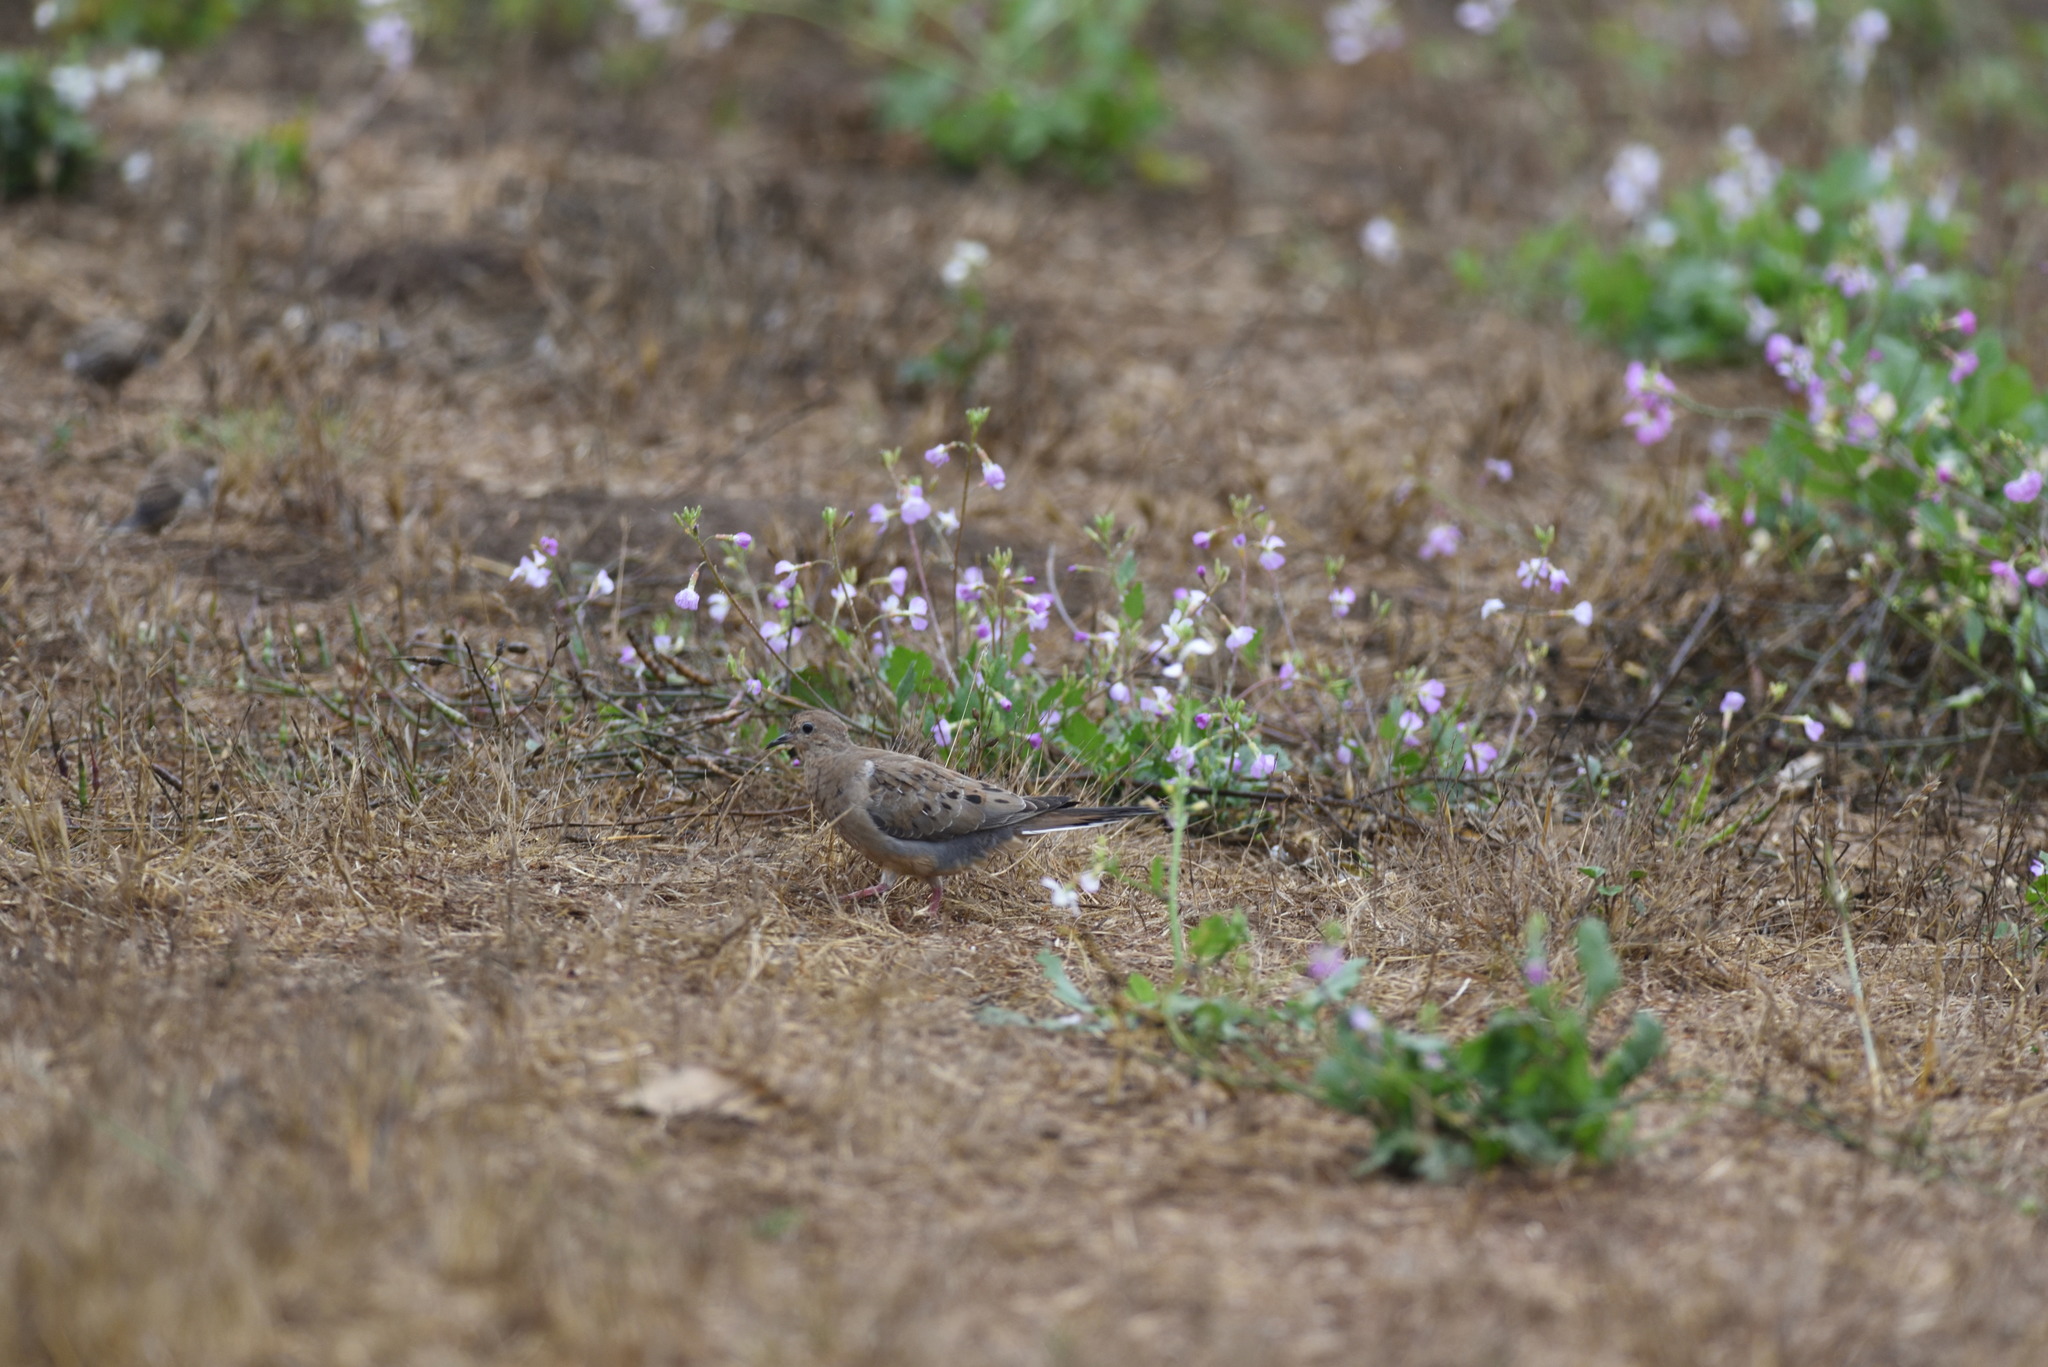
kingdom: Animalia
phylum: Chordata
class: Aves
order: Columbiformes
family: Columbidae
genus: Zenaida
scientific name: Zenaida macroura
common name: Mourning dove
